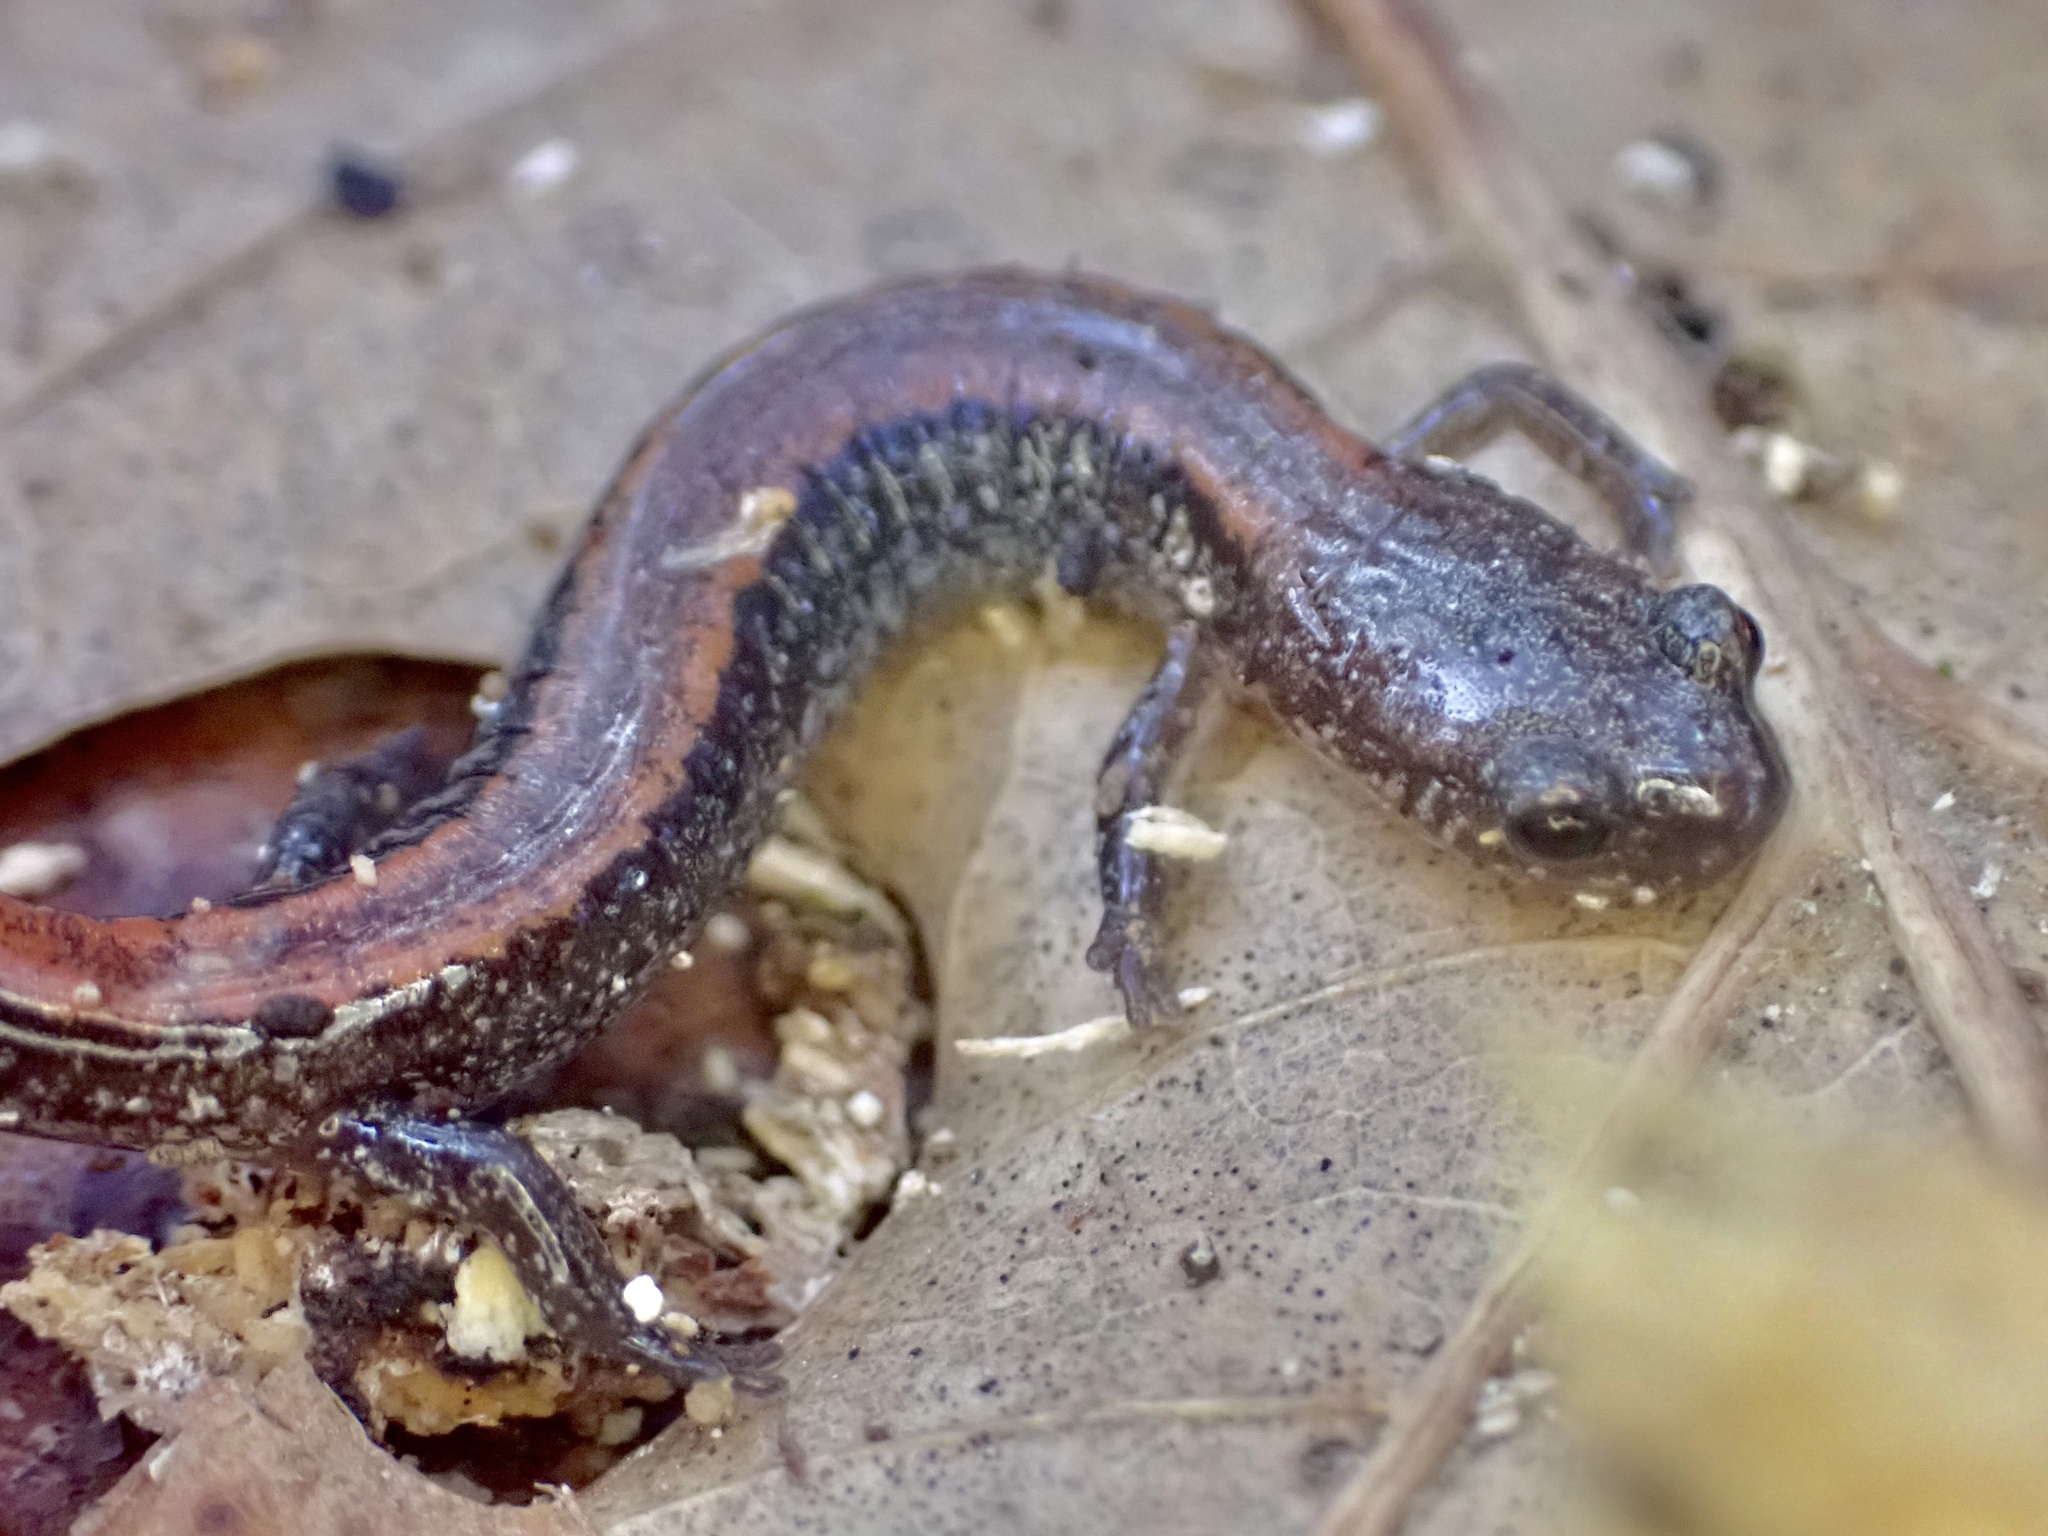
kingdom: Animalia
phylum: Chordata
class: Amphibia
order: Caudata
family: Plethodontidae
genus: Plethodon
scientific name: Plethodon cinereus
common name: Redback salamander
